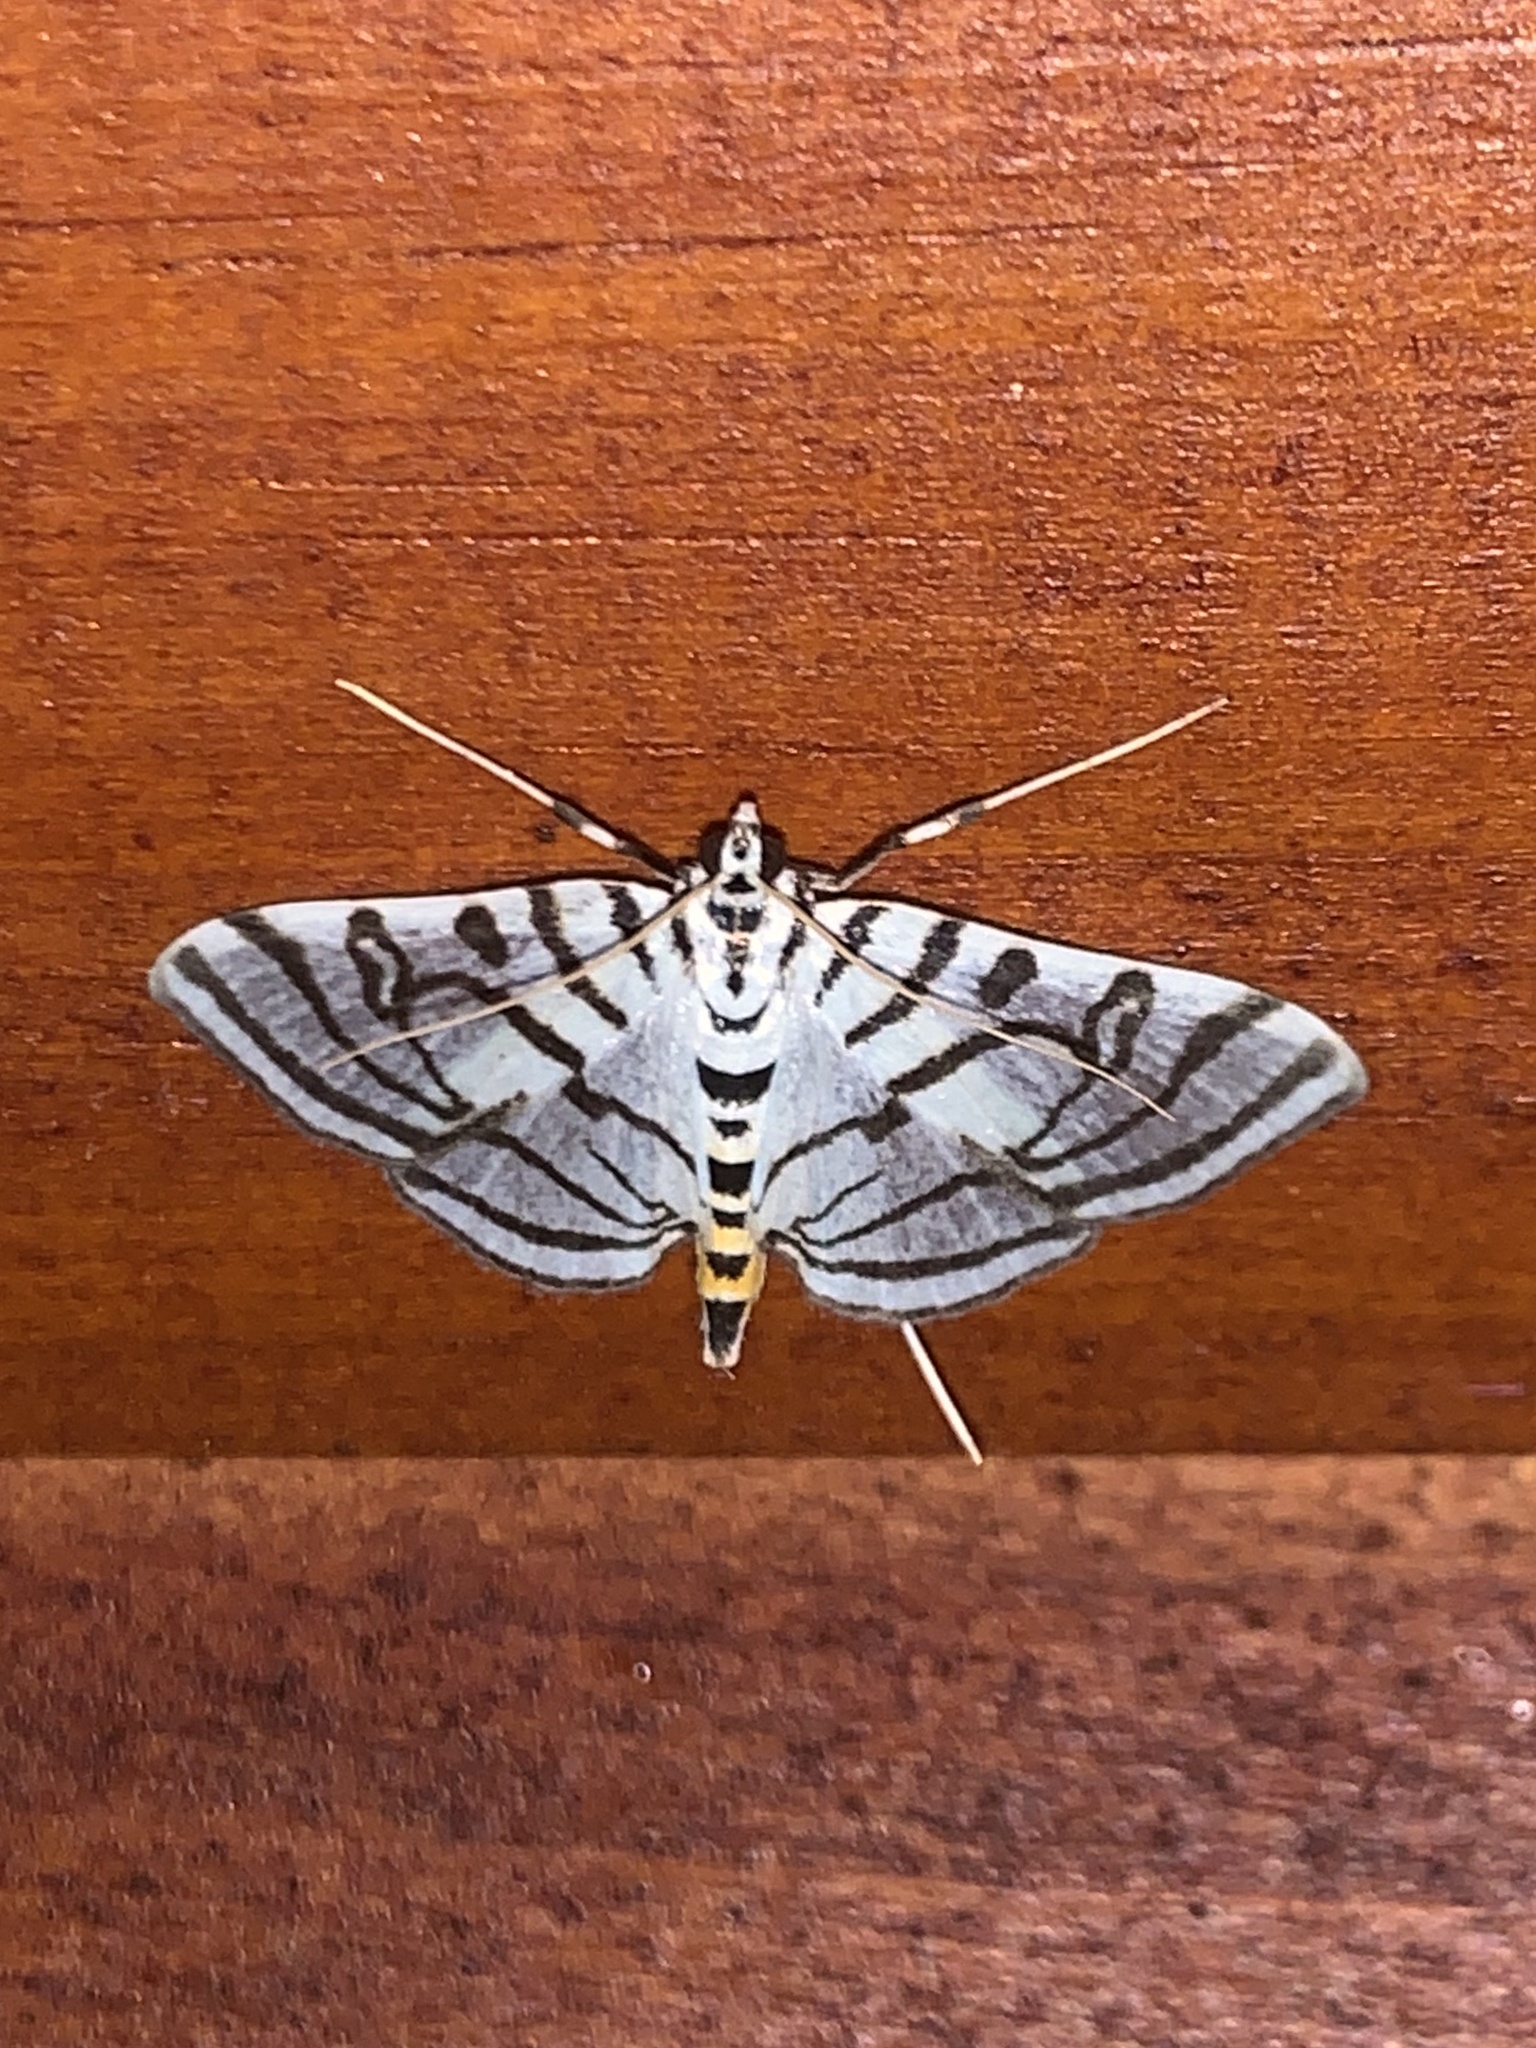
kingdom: Animalia
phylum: Arthropoda
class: Insecta
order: Lepidoptera
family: Crambidae
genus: Conchylodes
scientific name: Conchylodes ovulalis
